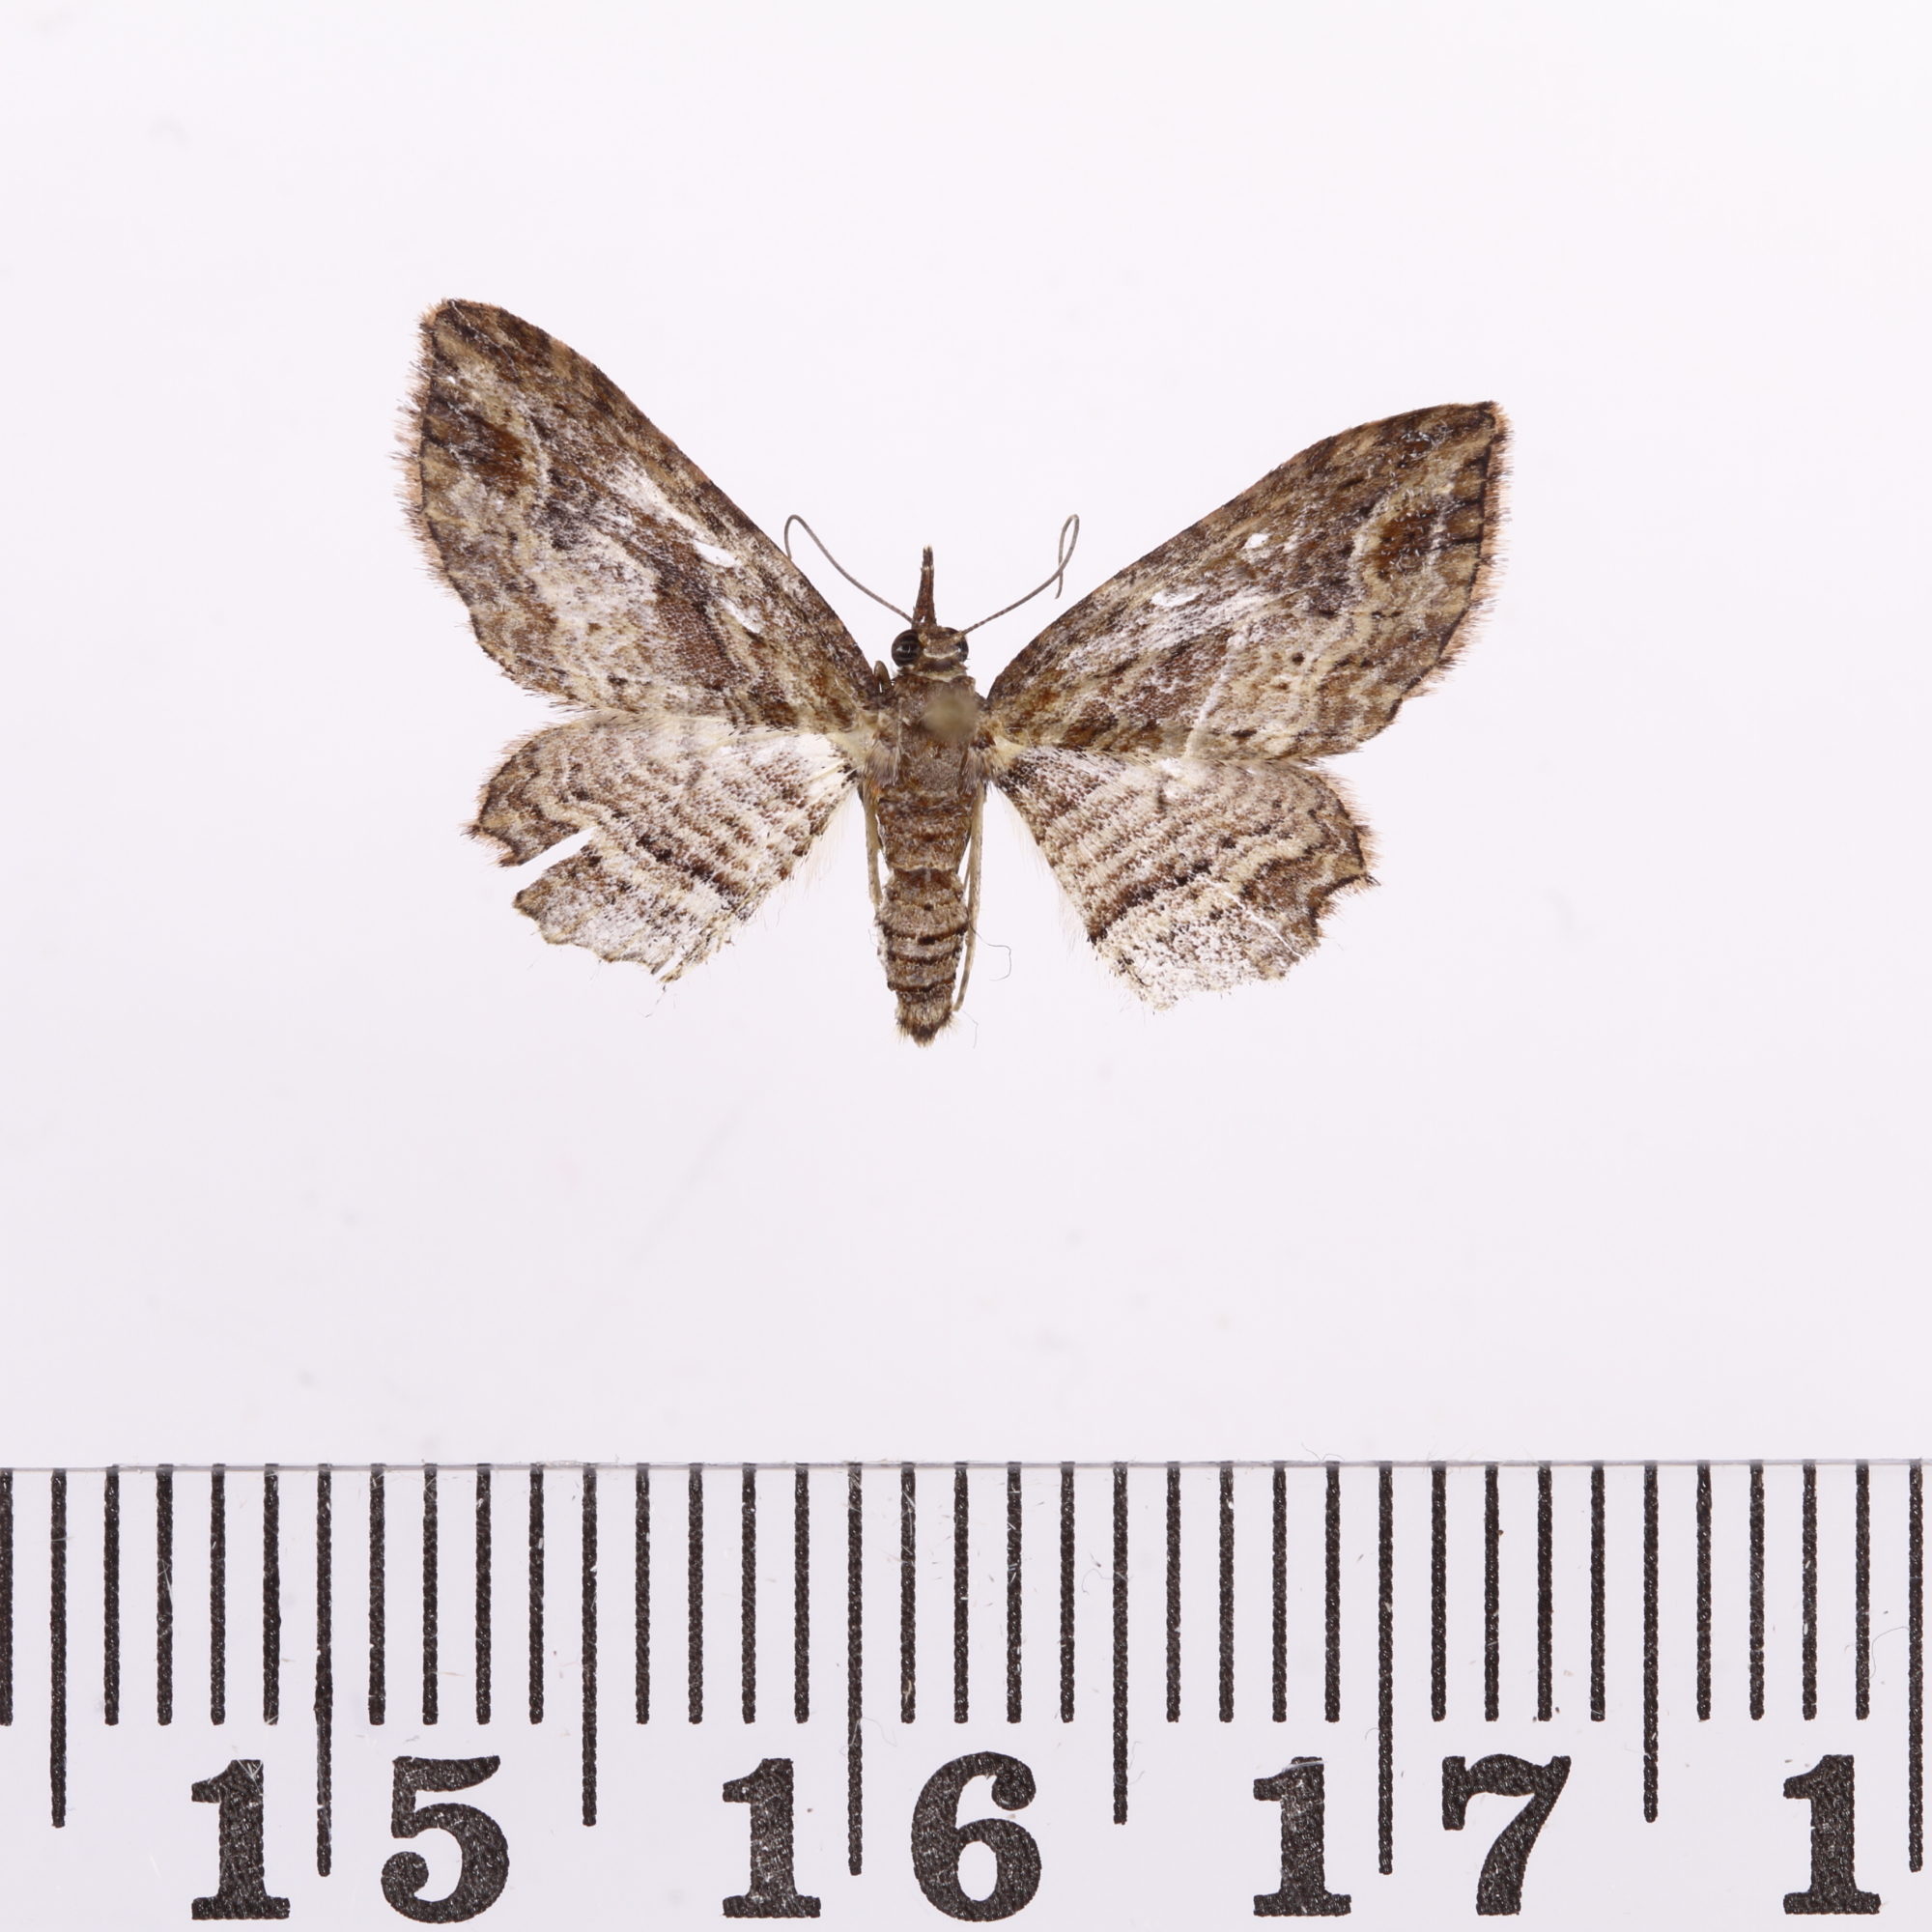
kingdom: Animalia
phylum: Arthropoda
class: Insecta
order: Lepidoptera
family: Geometridae
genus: Chloroclystis
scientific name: Chloroclystis filata
